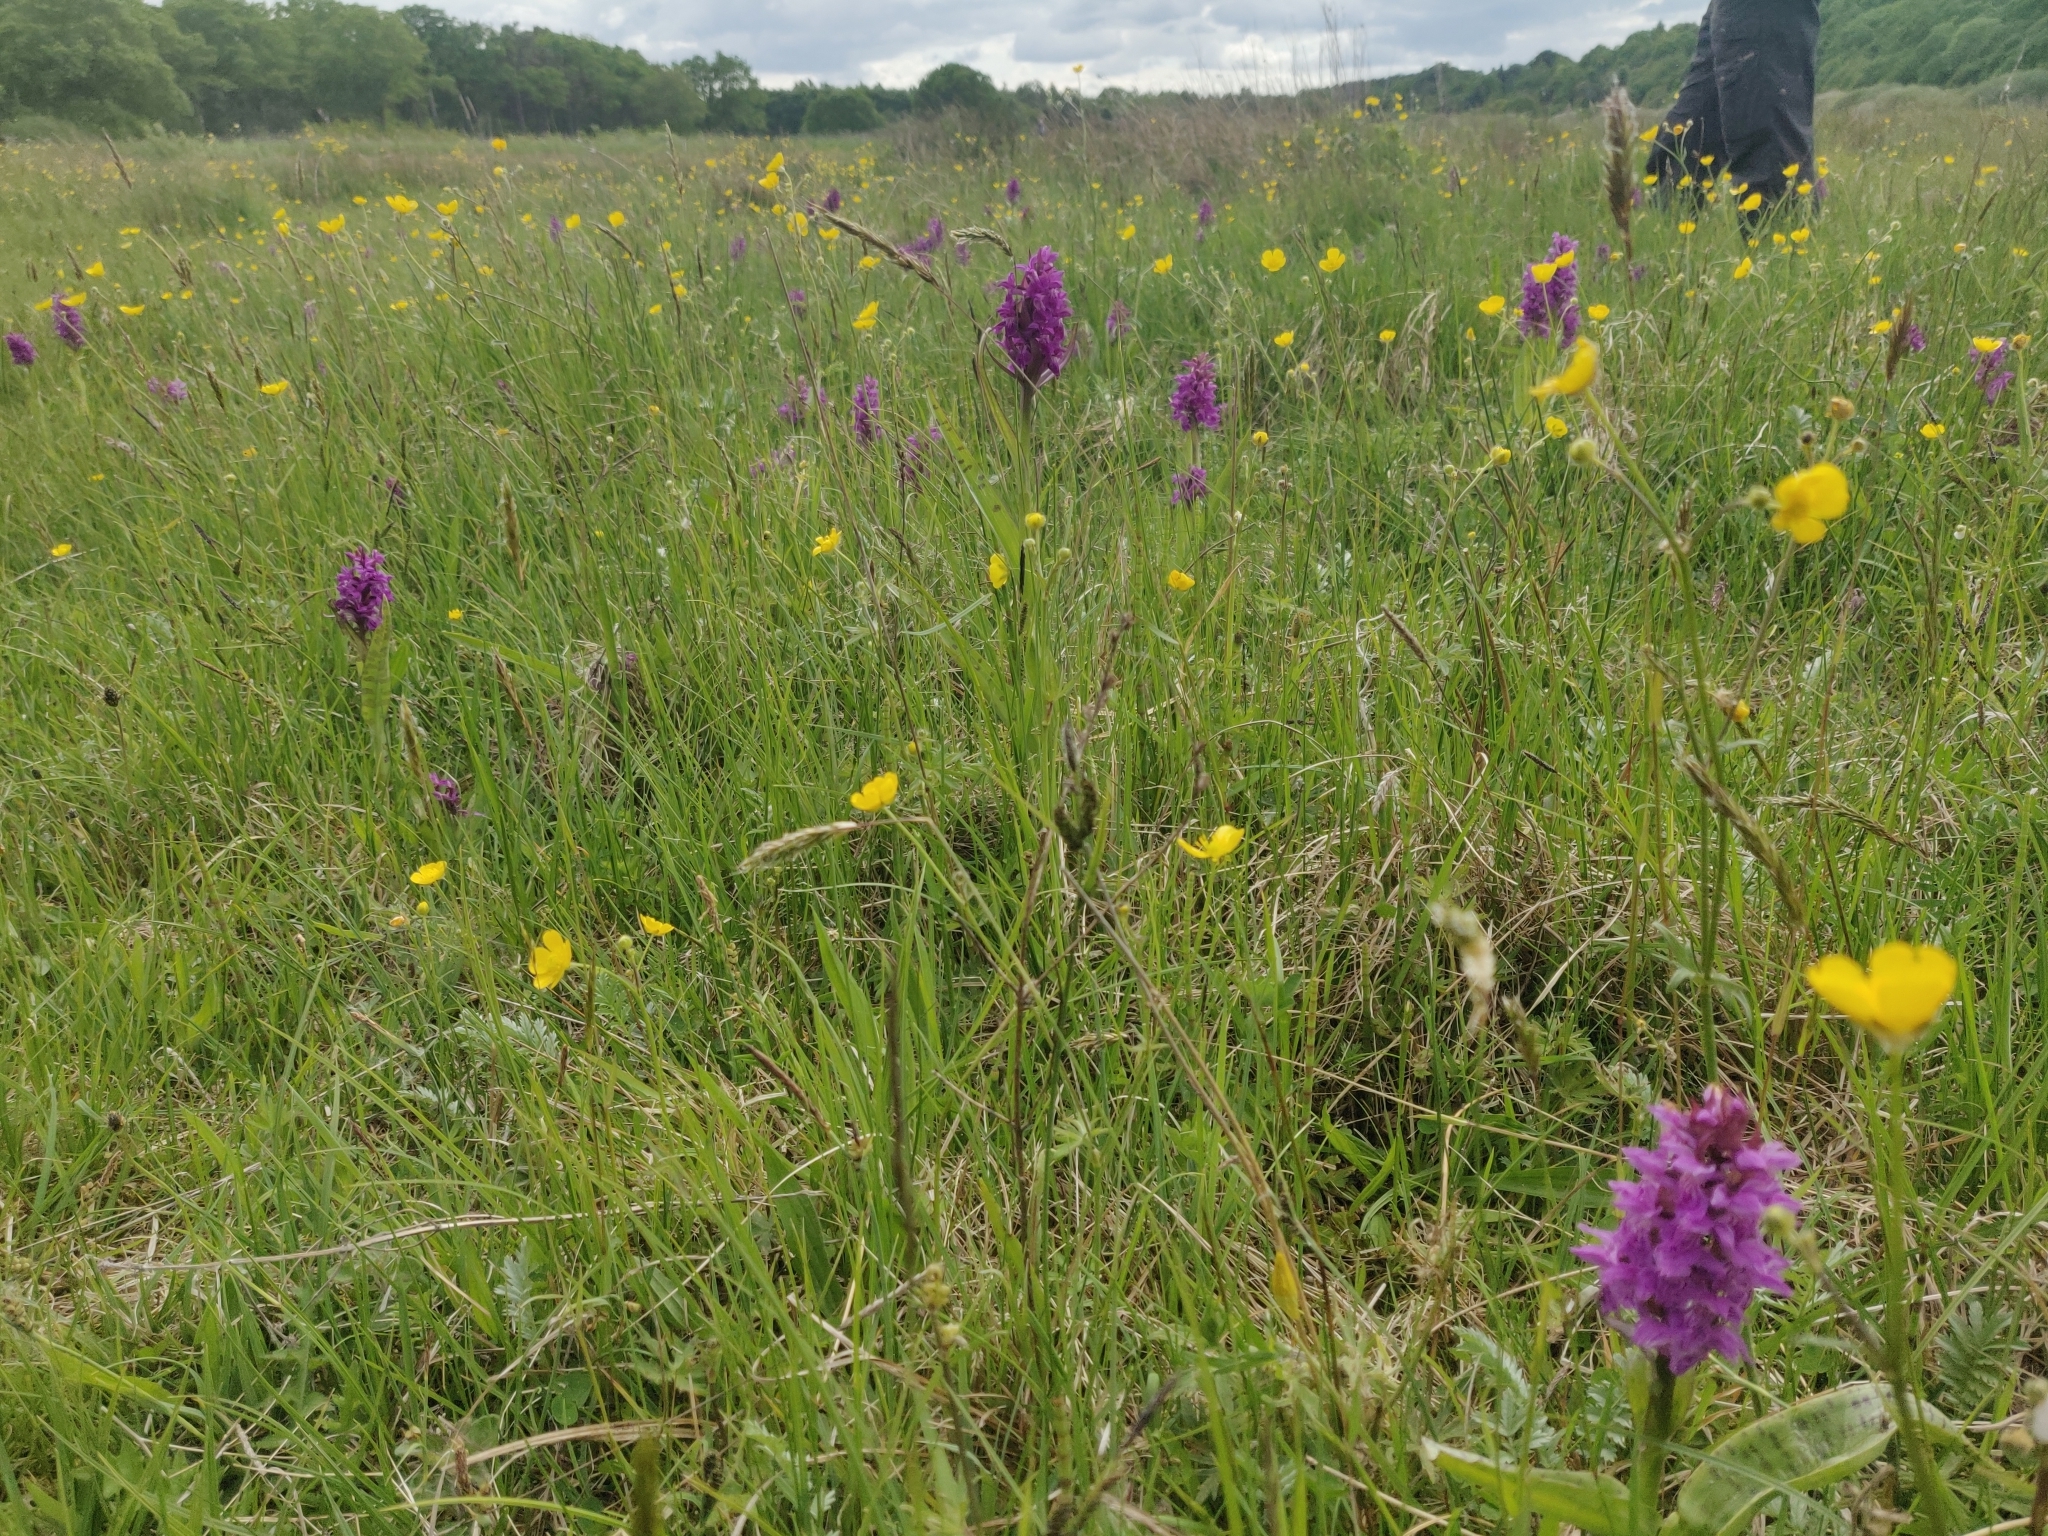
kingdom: Plantae
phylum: Tracheophyta
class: Liliopsida
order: Asparagales
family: Orchidaceae
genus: Dactylorhiza
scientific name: Dactylorhiza majalis
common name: Marsh orchid
